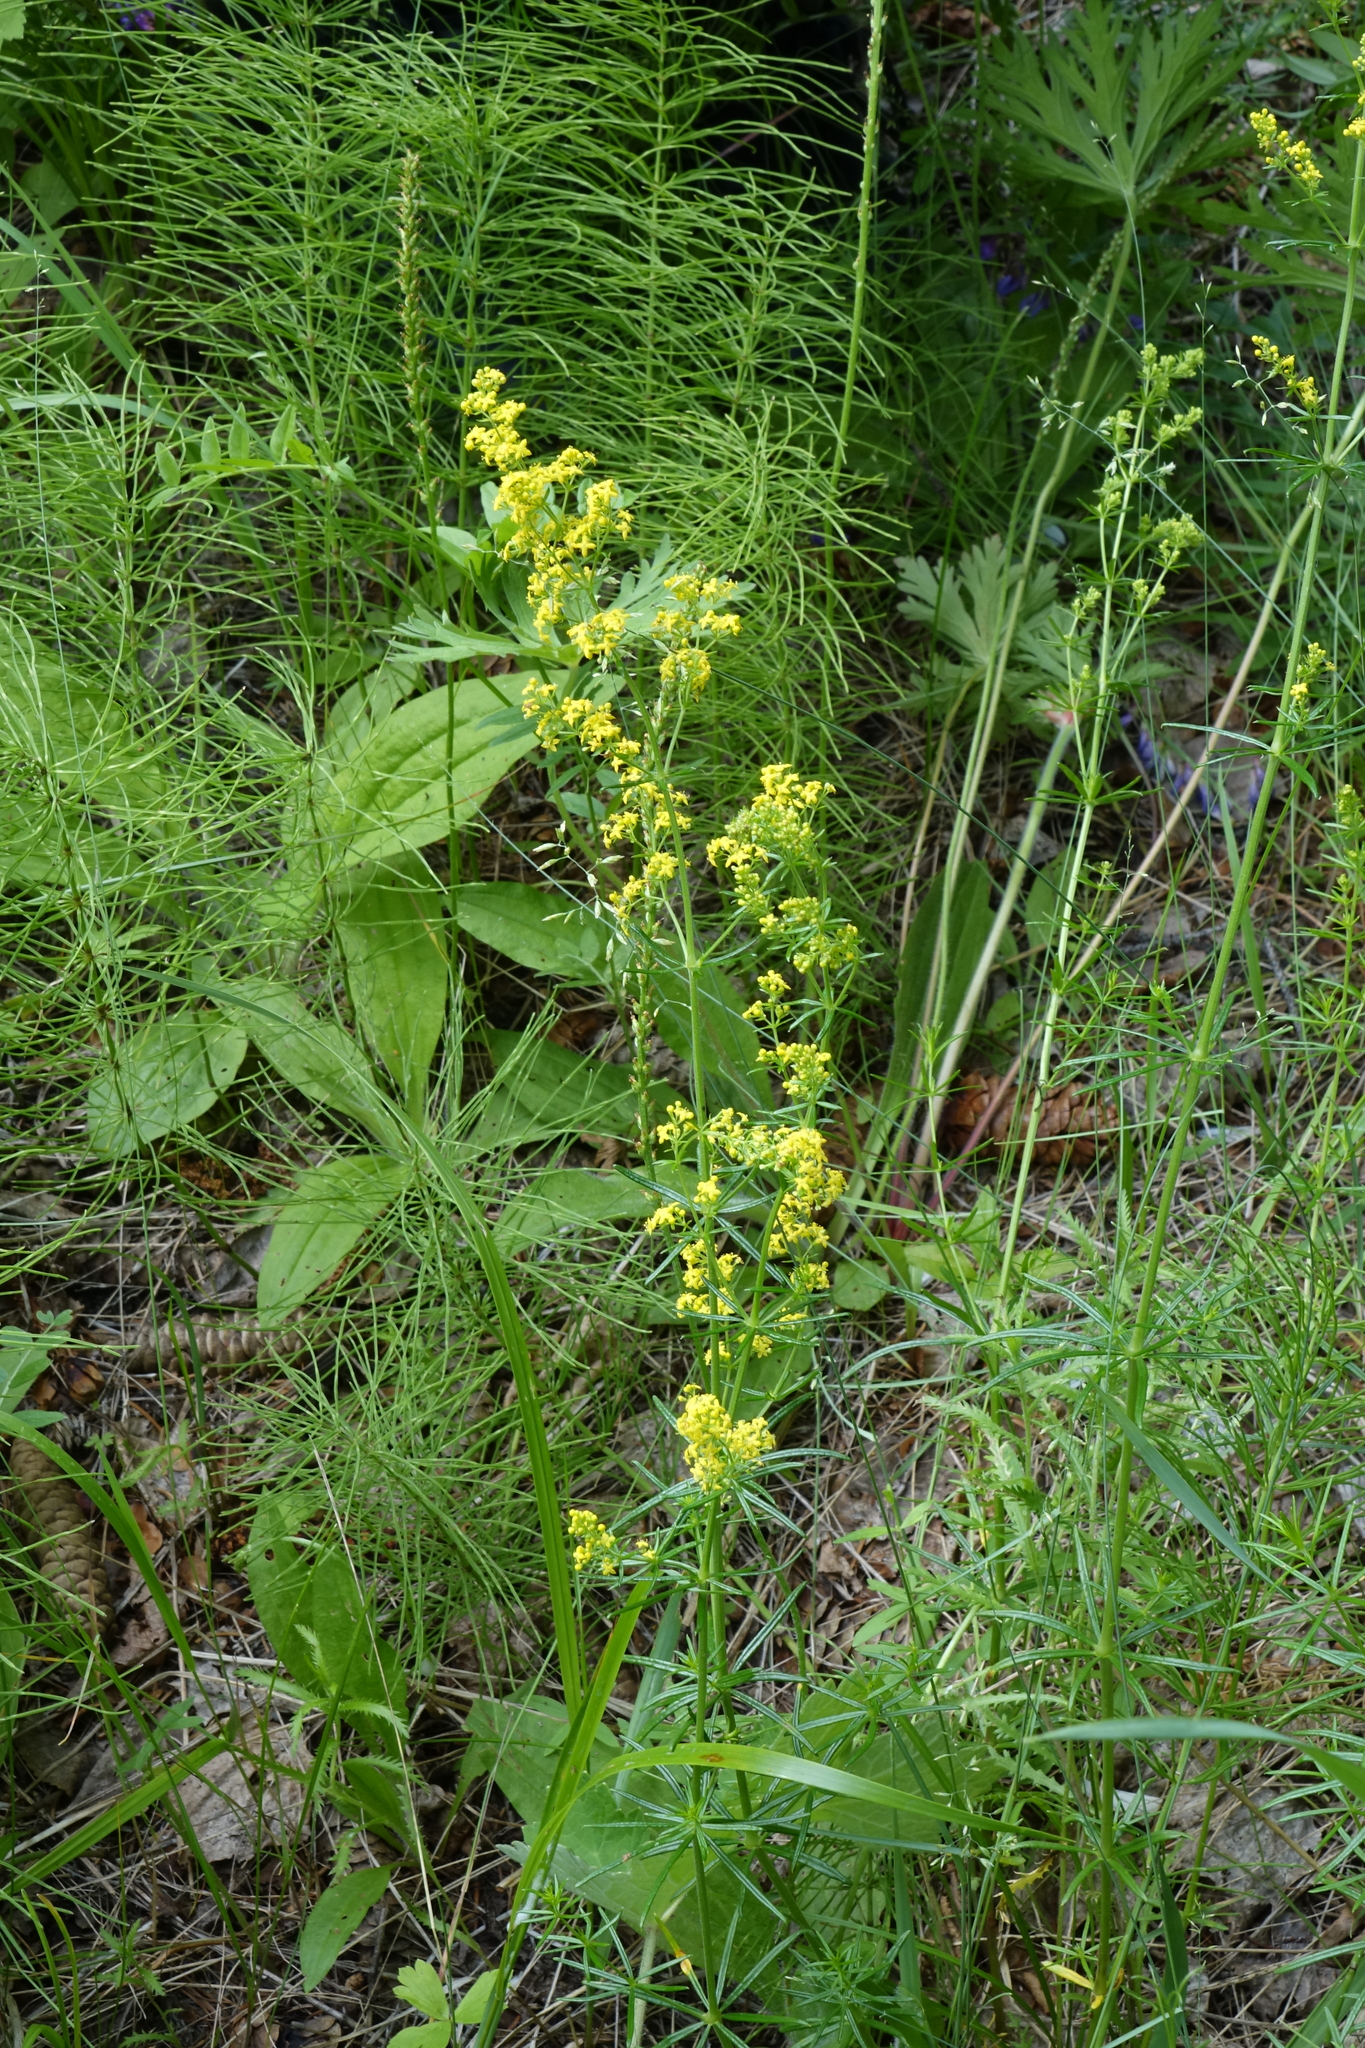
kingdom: Plantae
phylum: Tracheophyta
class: Magnoliopsida
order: Gentianales
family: Rubiaceae
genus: Galium
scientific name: Galium verum
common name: Lady's bedstraw
